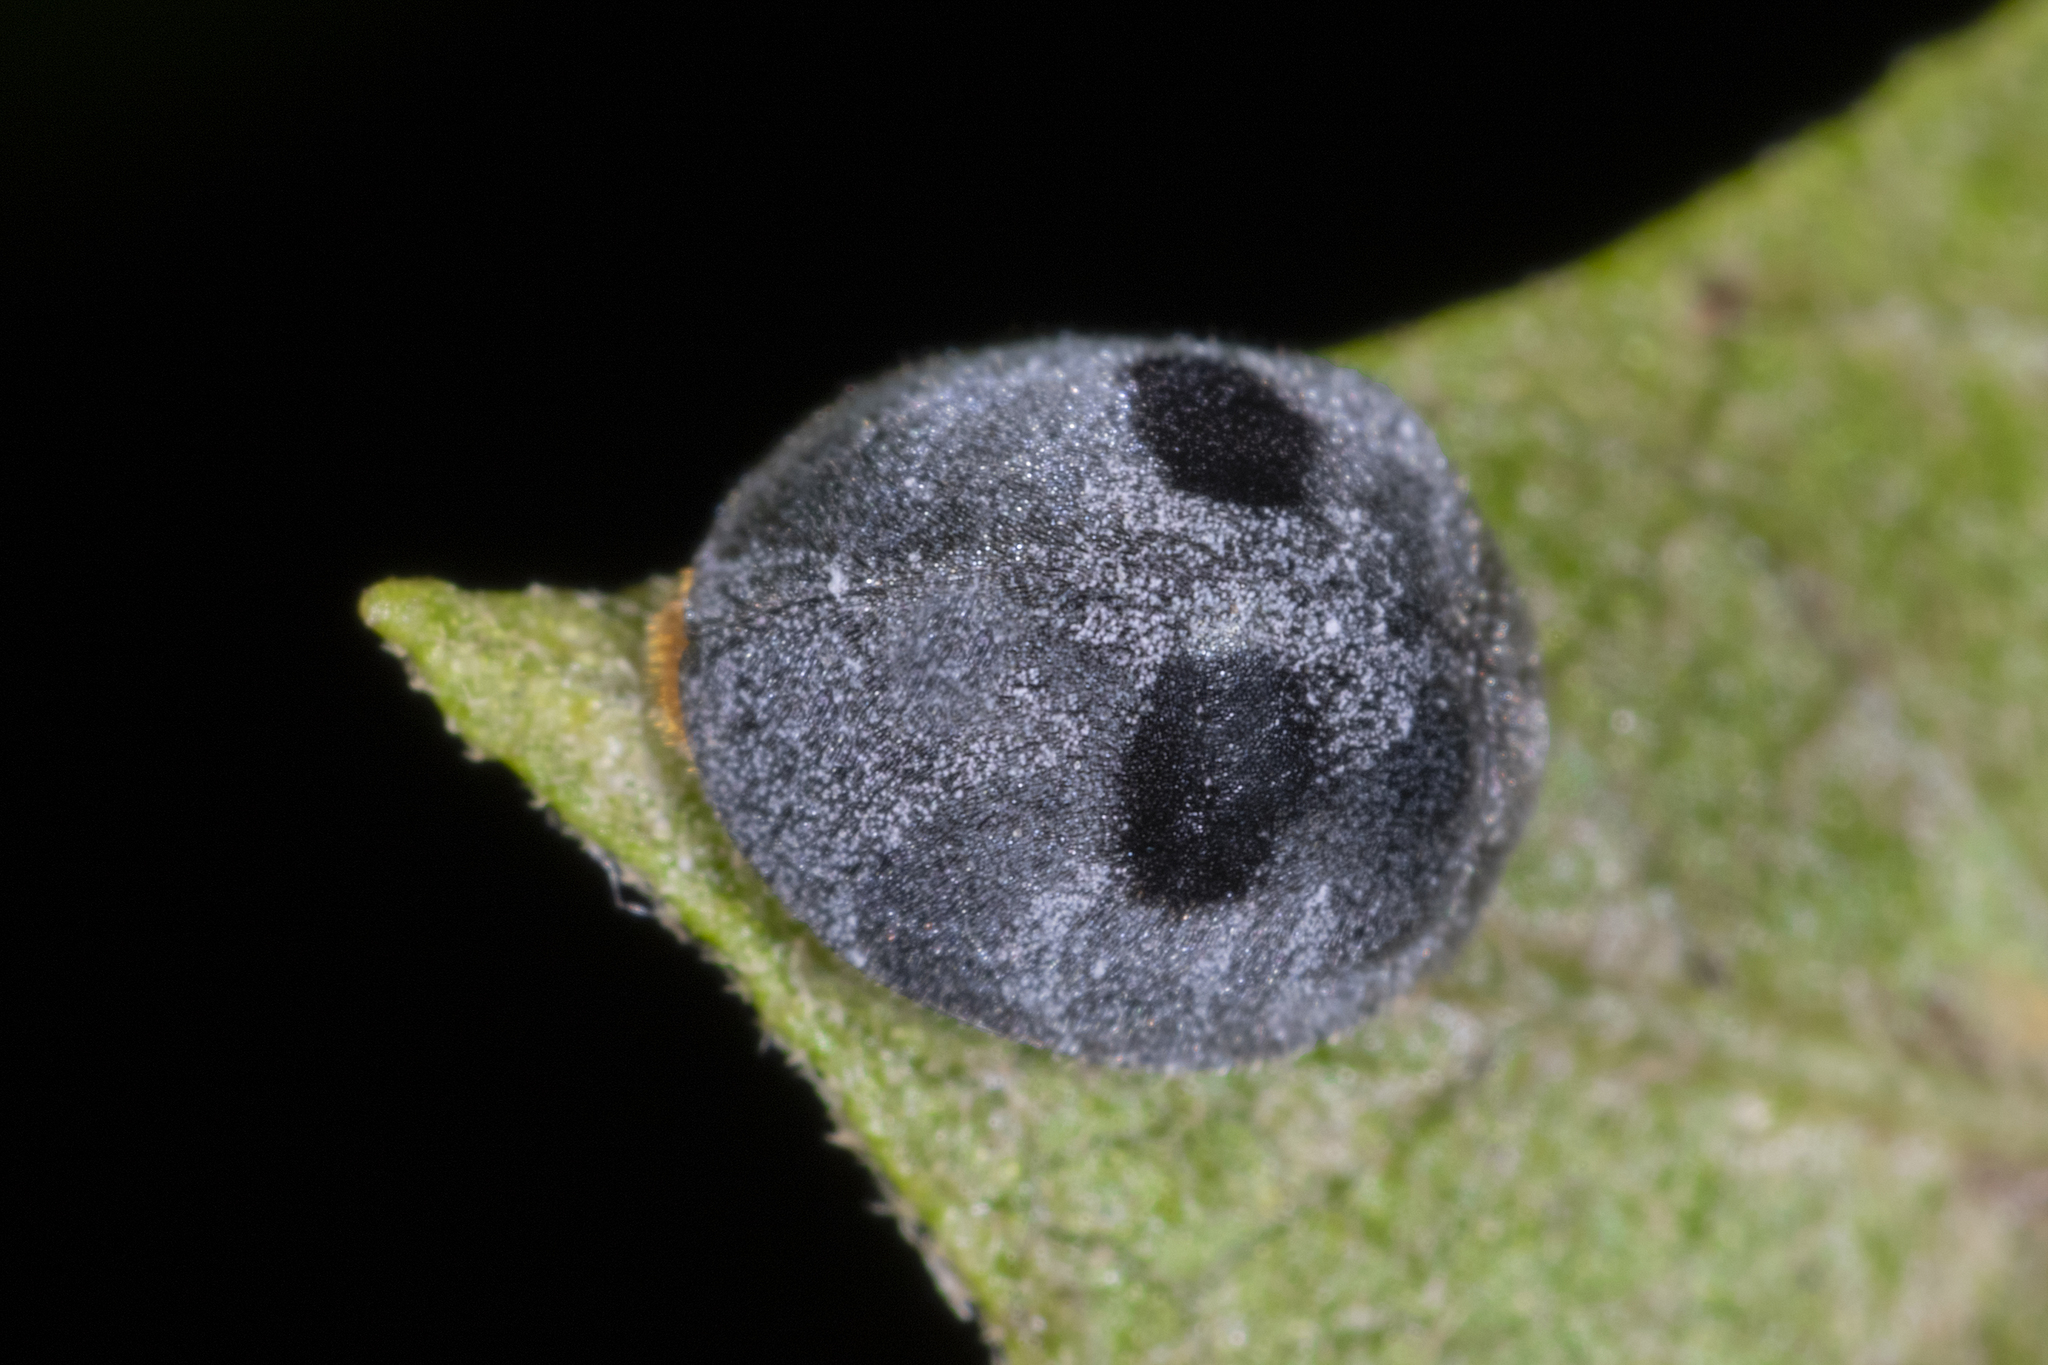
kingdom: Animalia
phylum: Arthropoda
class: Insecta
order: Coleoptera
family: Coccinellidae
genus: Azya
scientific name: Azya luteipes
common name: Ladybird beetle
